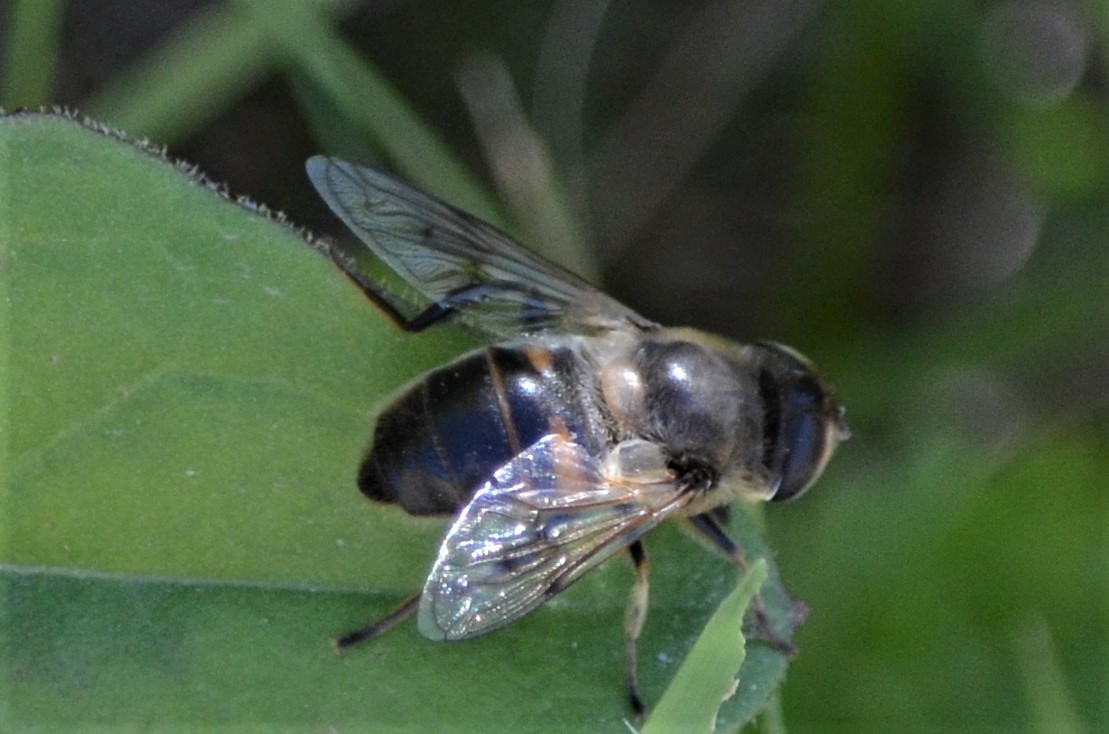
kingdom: Animalia
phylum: Arthropoda
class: Insecta
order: Diptera
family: Syrphidae
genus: Eristalis
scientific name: Eristalis tenax
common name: Drone fly
